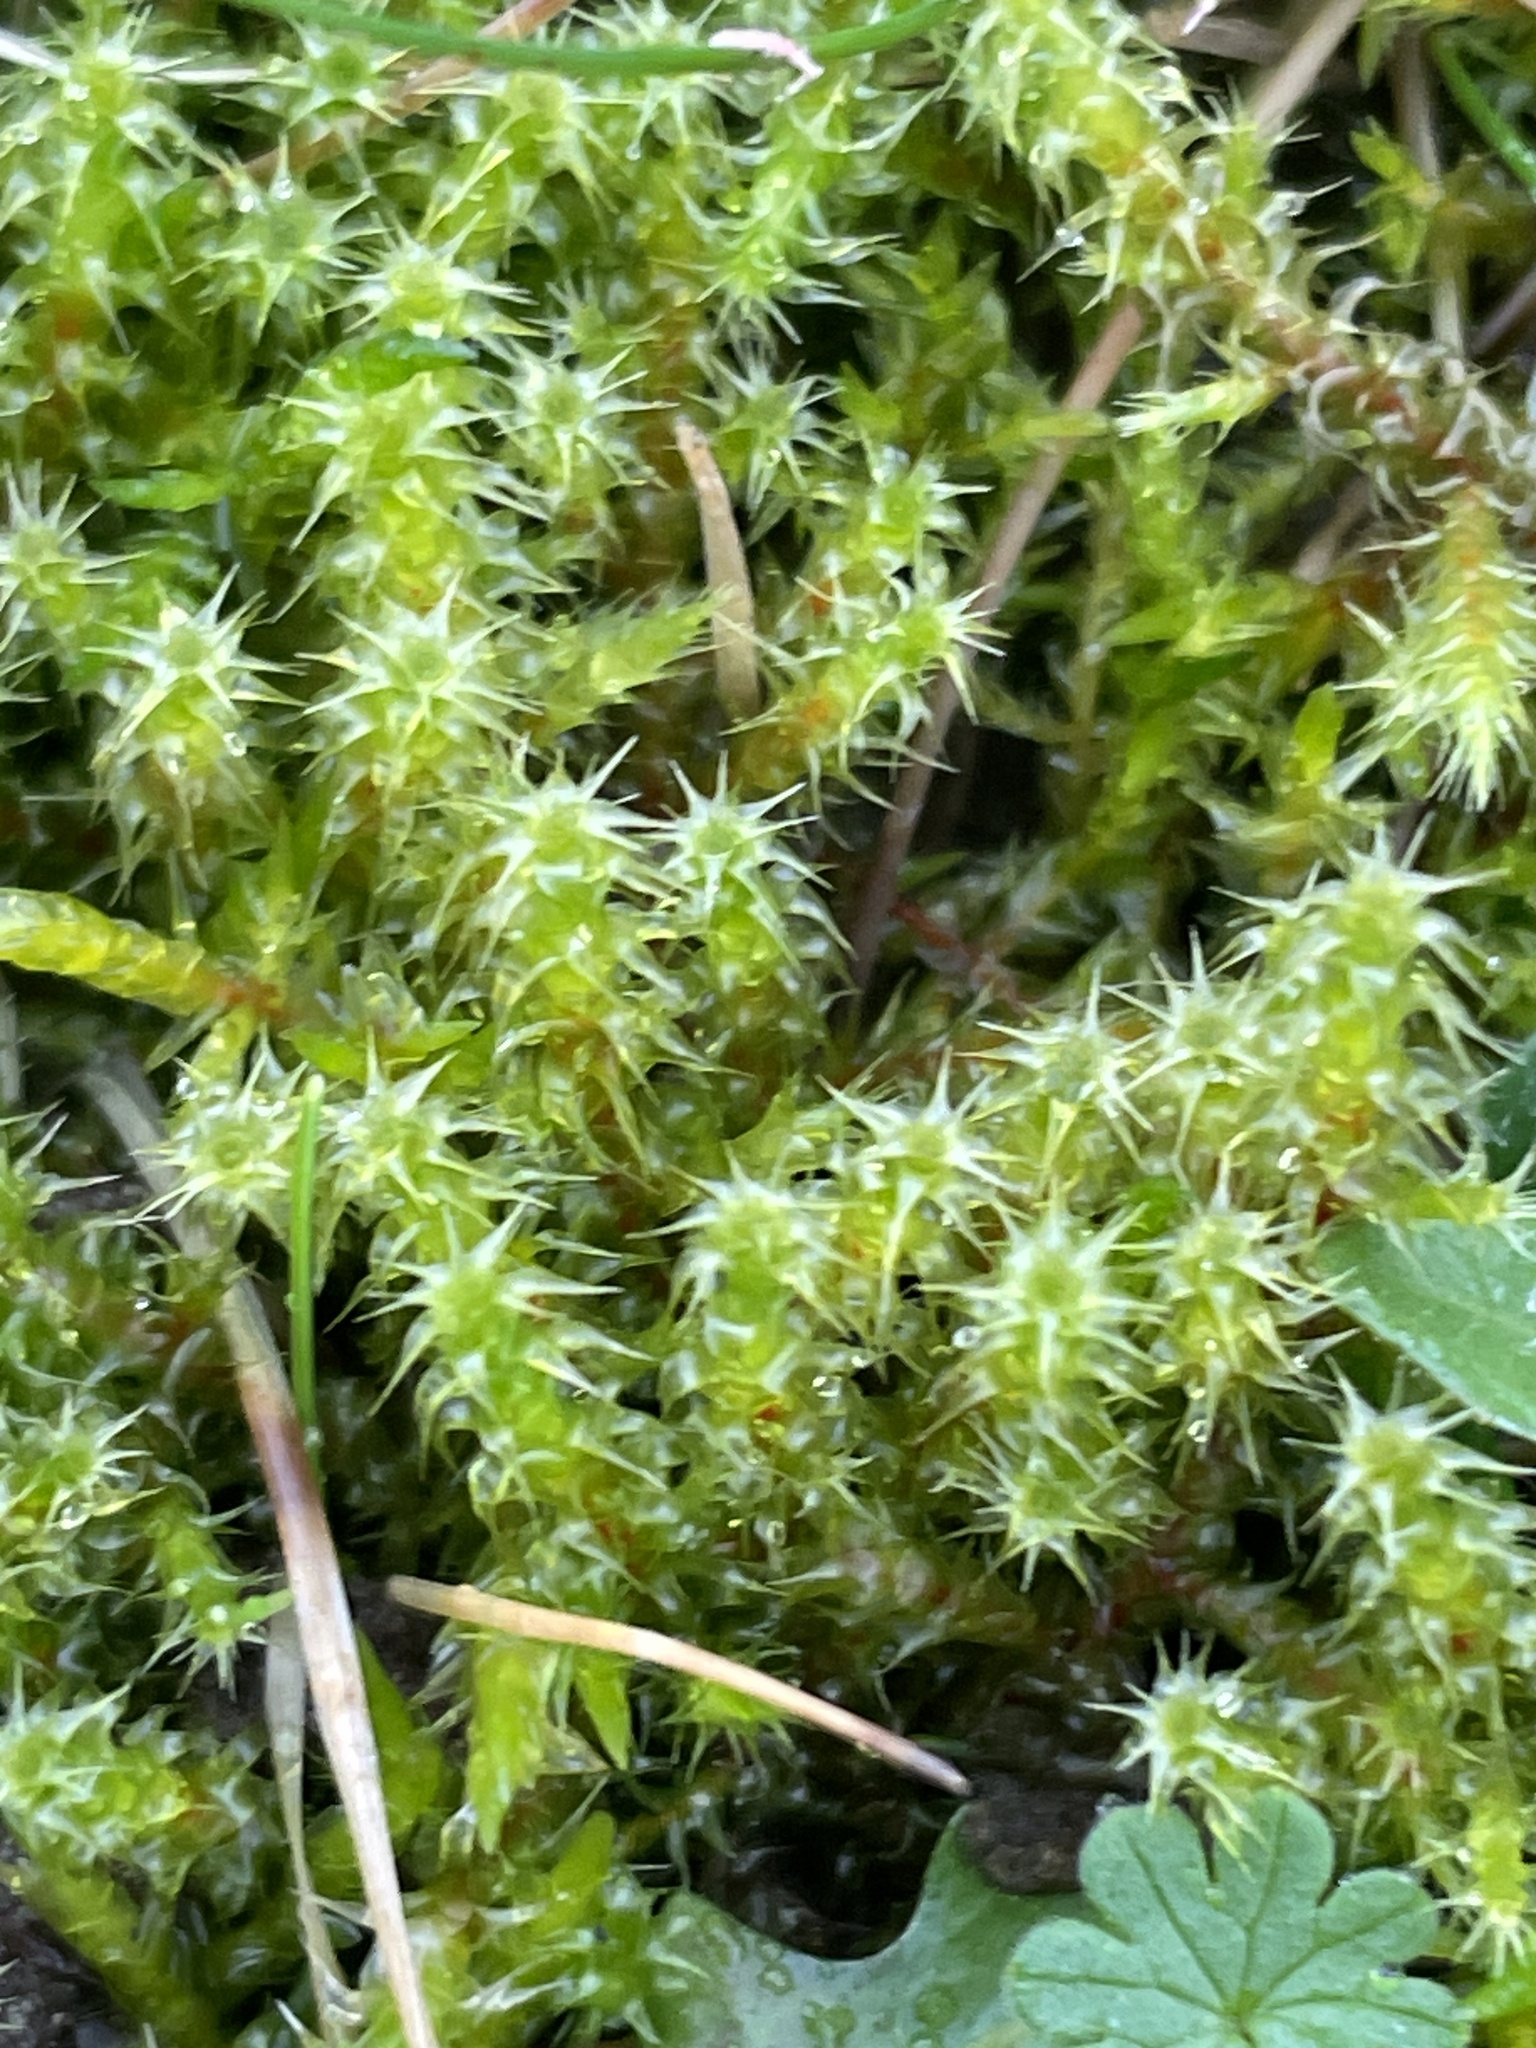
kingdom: Plantae
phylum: Bryophyta
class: Bryopsida
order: Hypnales
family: Hylocomiaceae
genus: Rhytidiadelphus
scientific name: Rhytidiadelphus squarrosus
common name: Springy turf-moss
